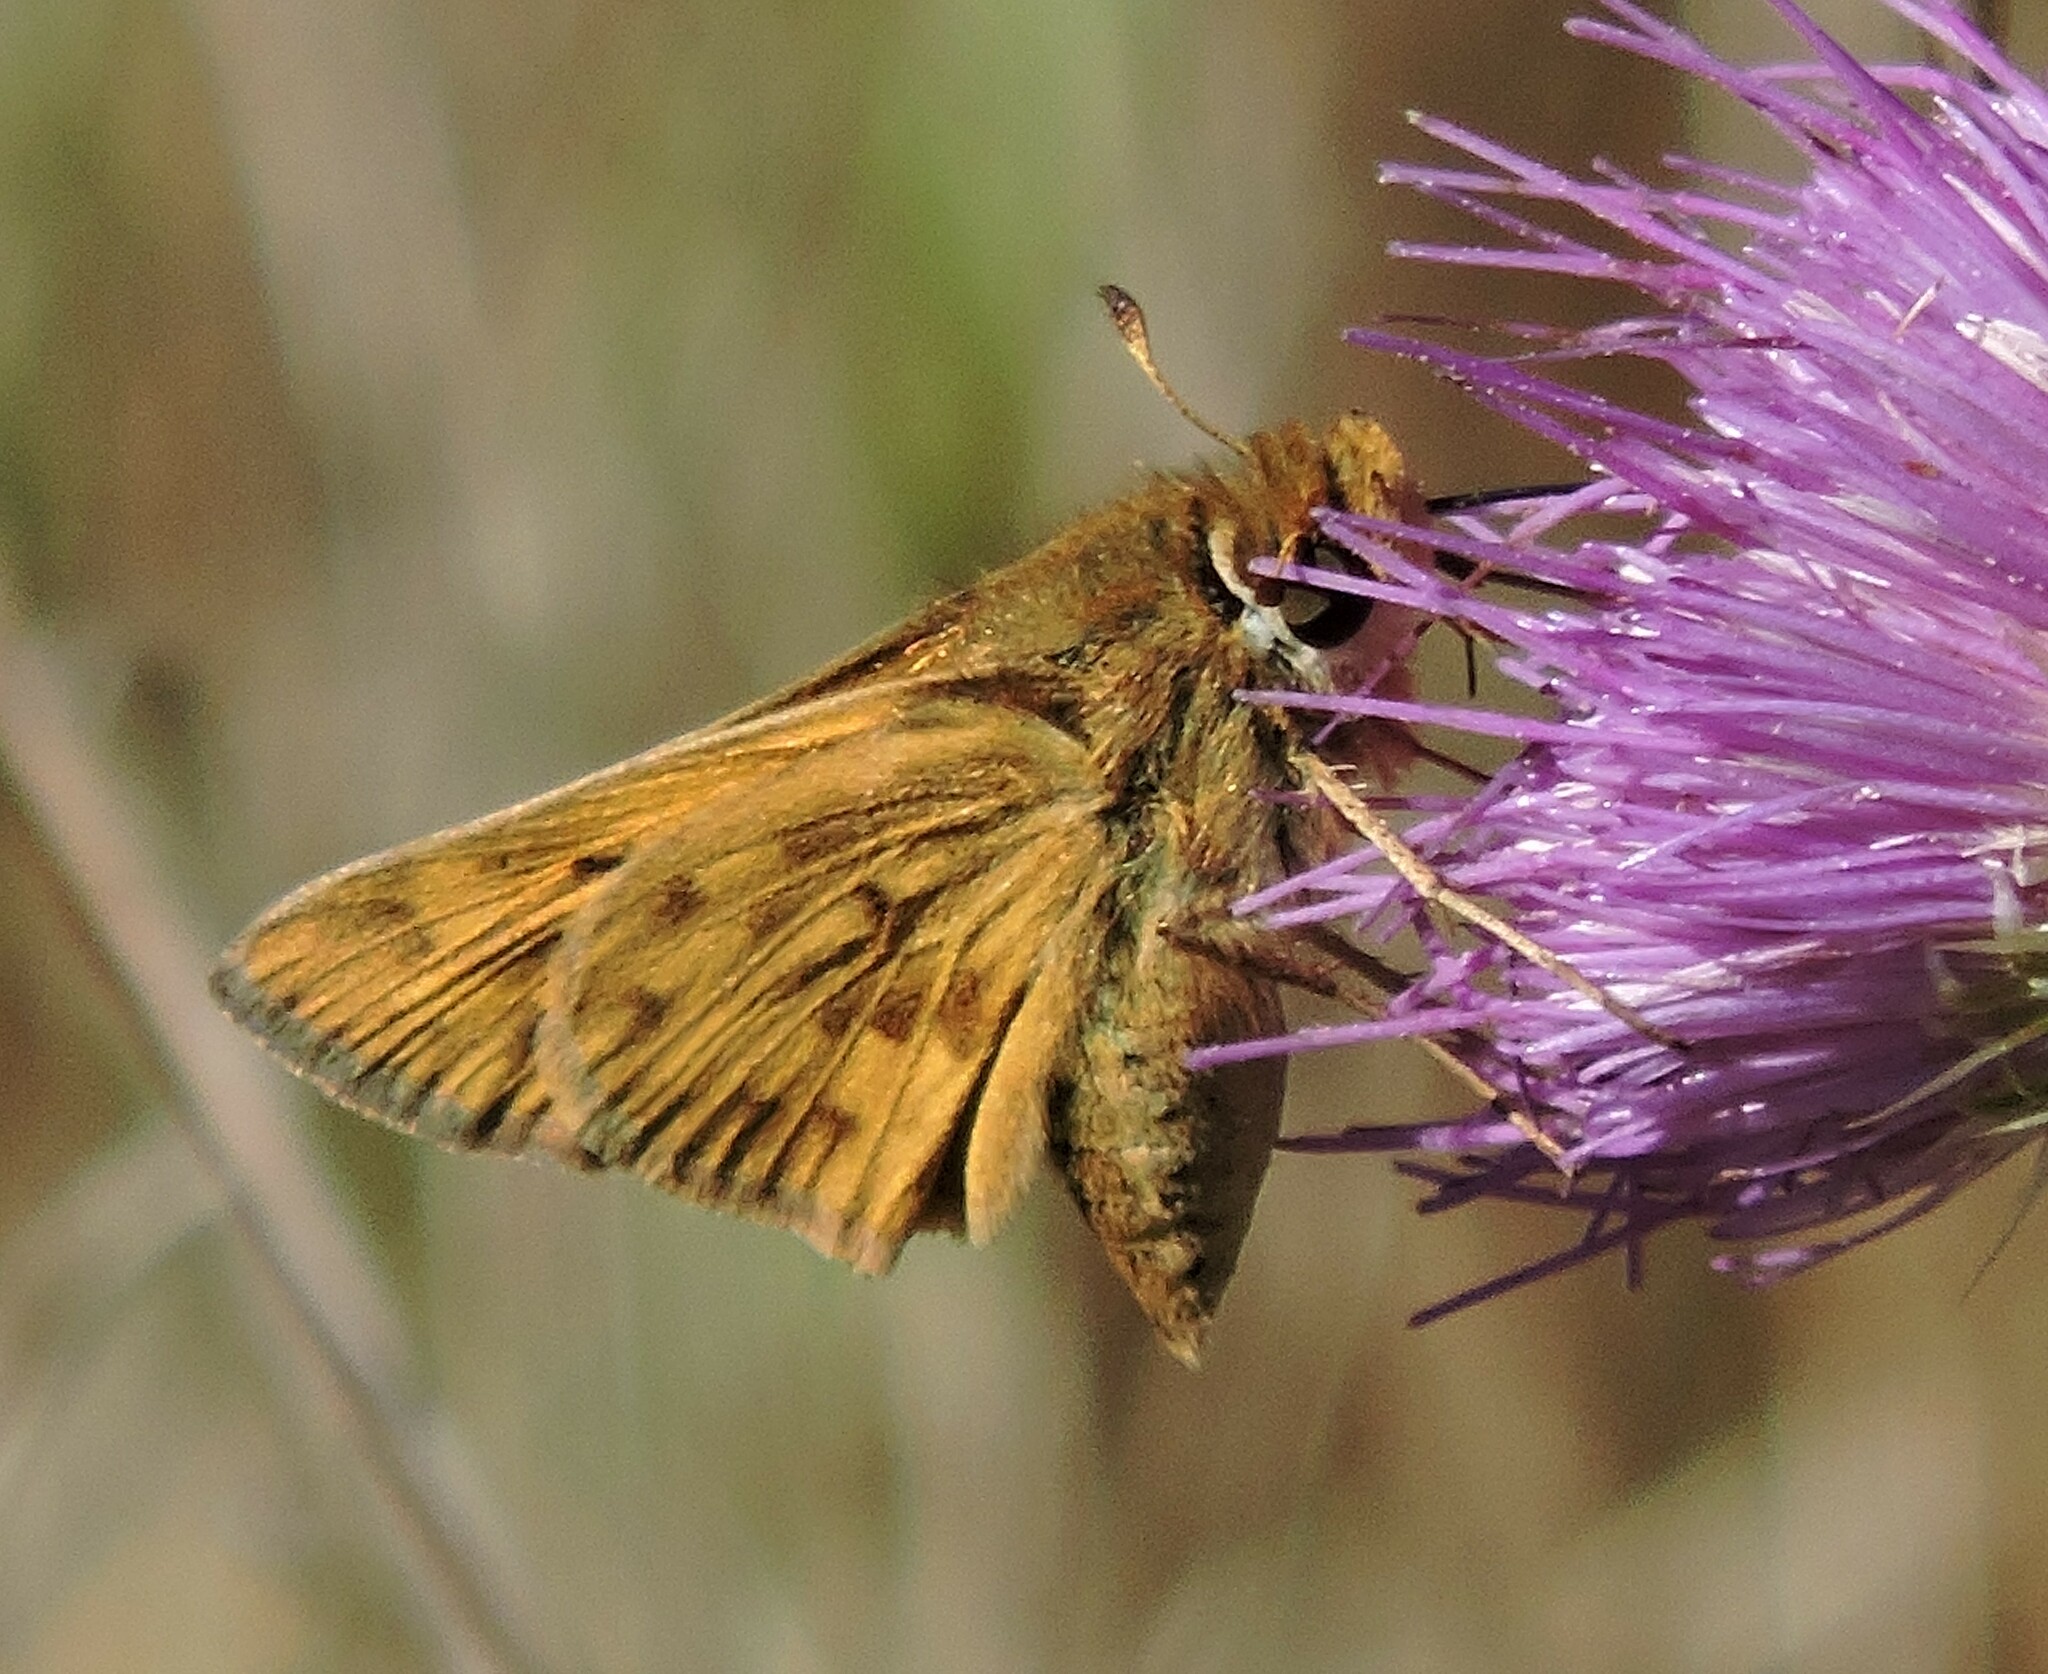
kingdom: Animalia
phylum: Arthropoda
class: Insecta
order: Lepidoptera
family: Hesperiidae
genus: Hylephila
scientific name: Hylephila phyleus
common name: Fiery skipper
